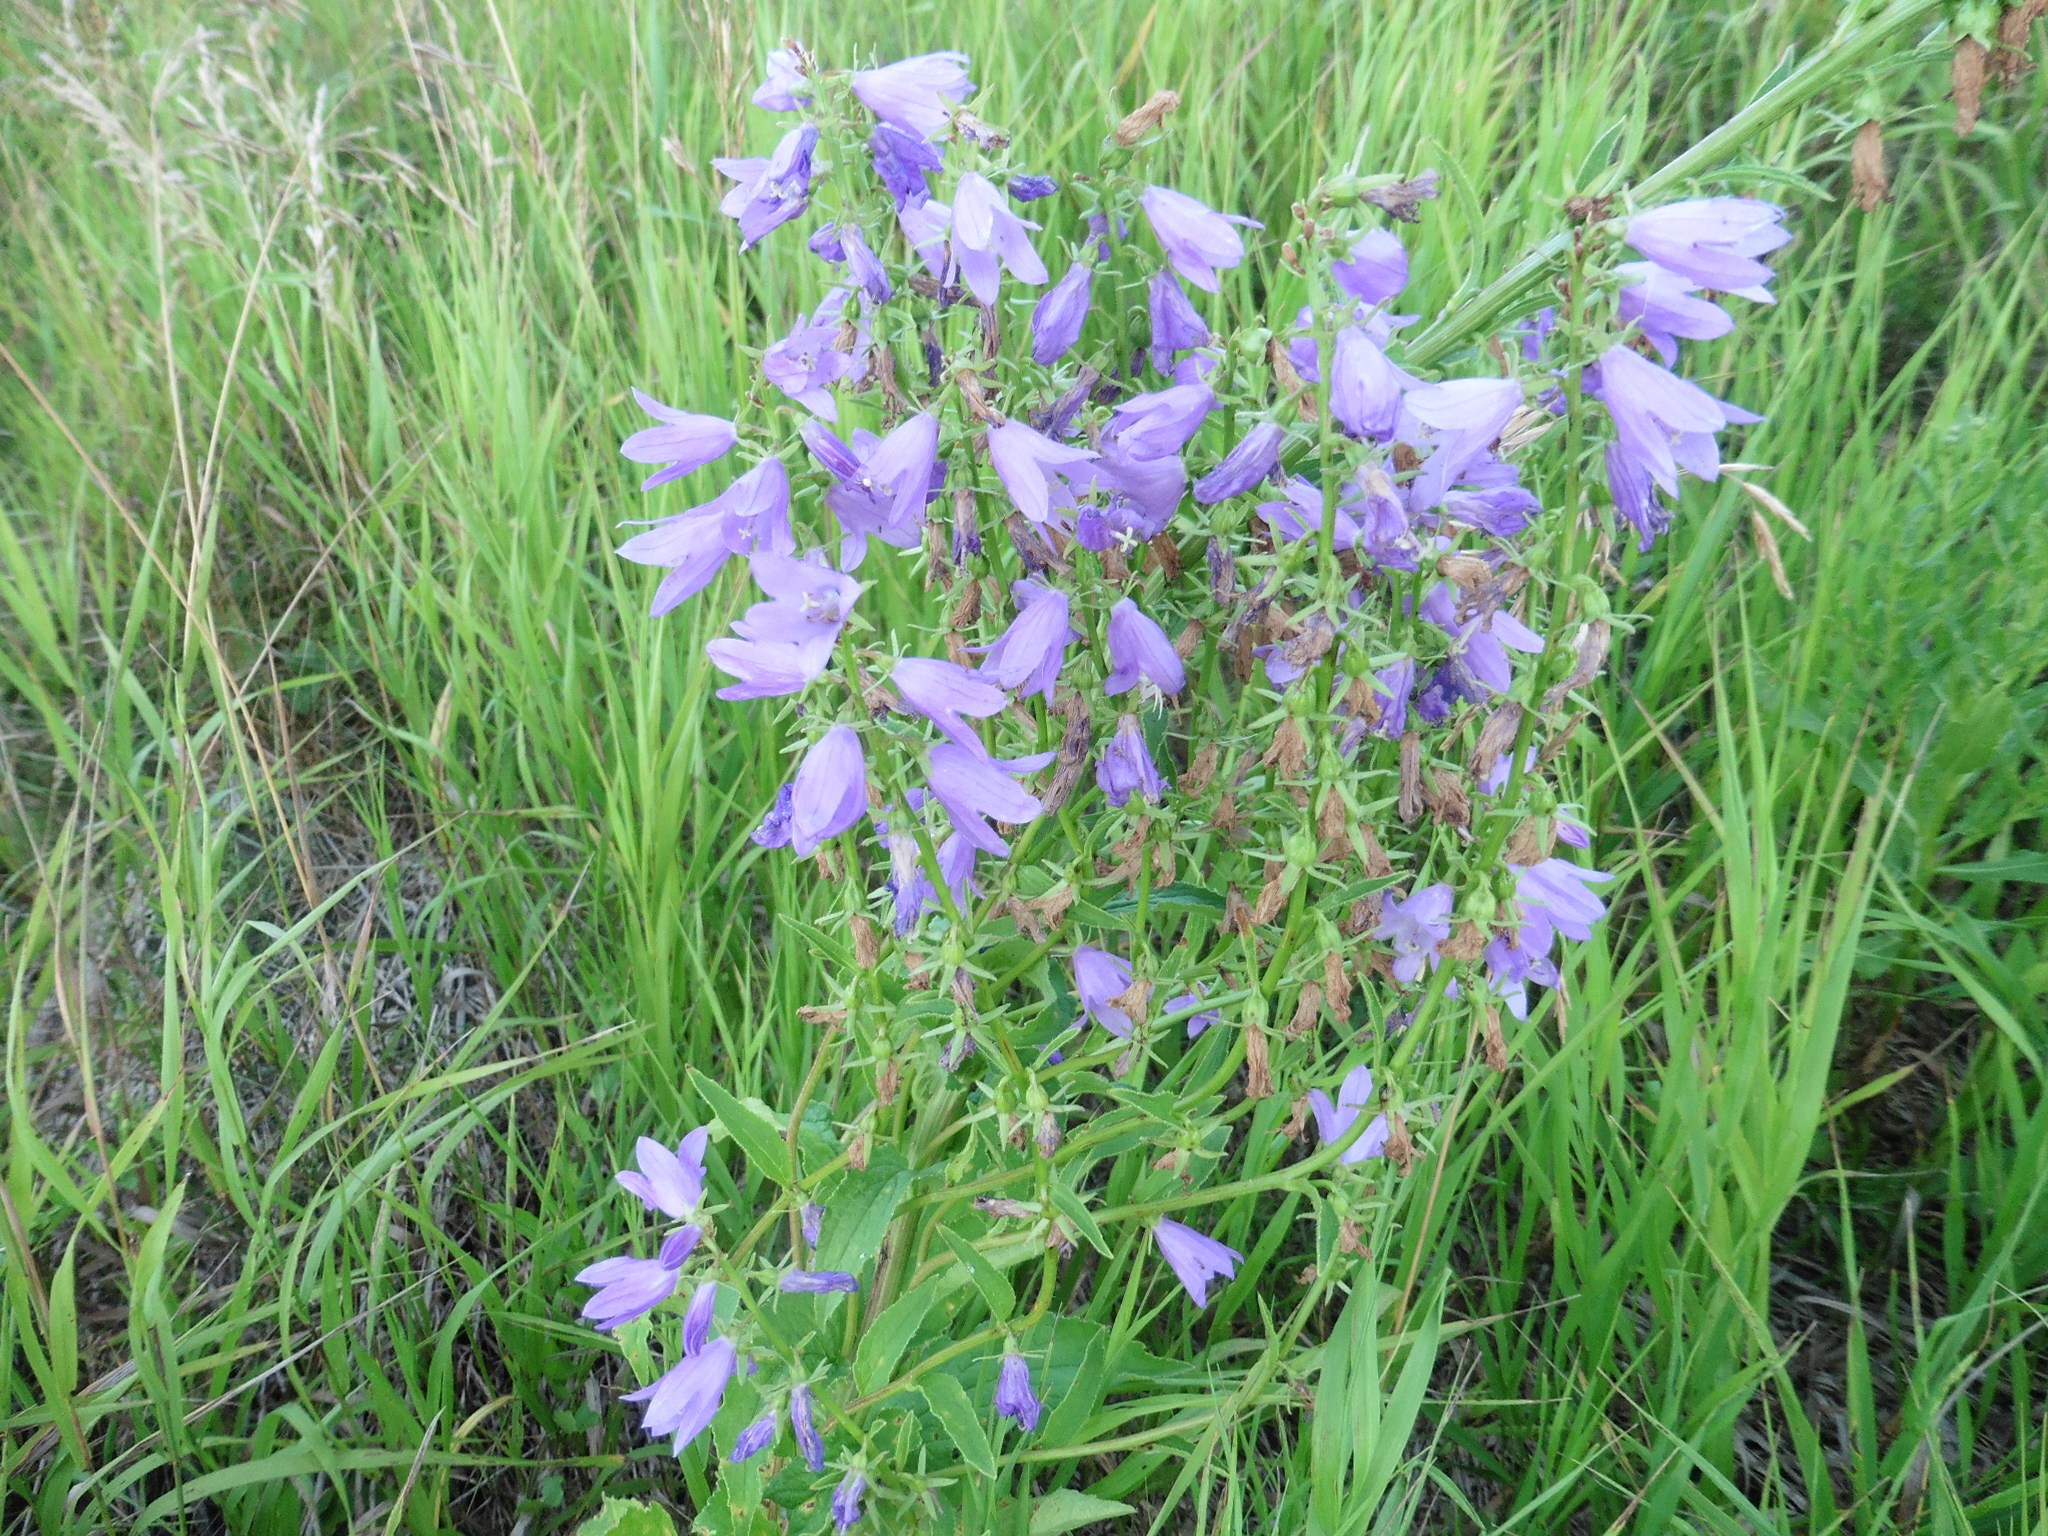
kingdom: Plantae
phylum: Tracheophyta
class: Magnoliopsida
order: Asterales
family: Campanulaceae
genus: Campanula
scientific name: Campanula rapunculoides
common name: Creeping bellflower
